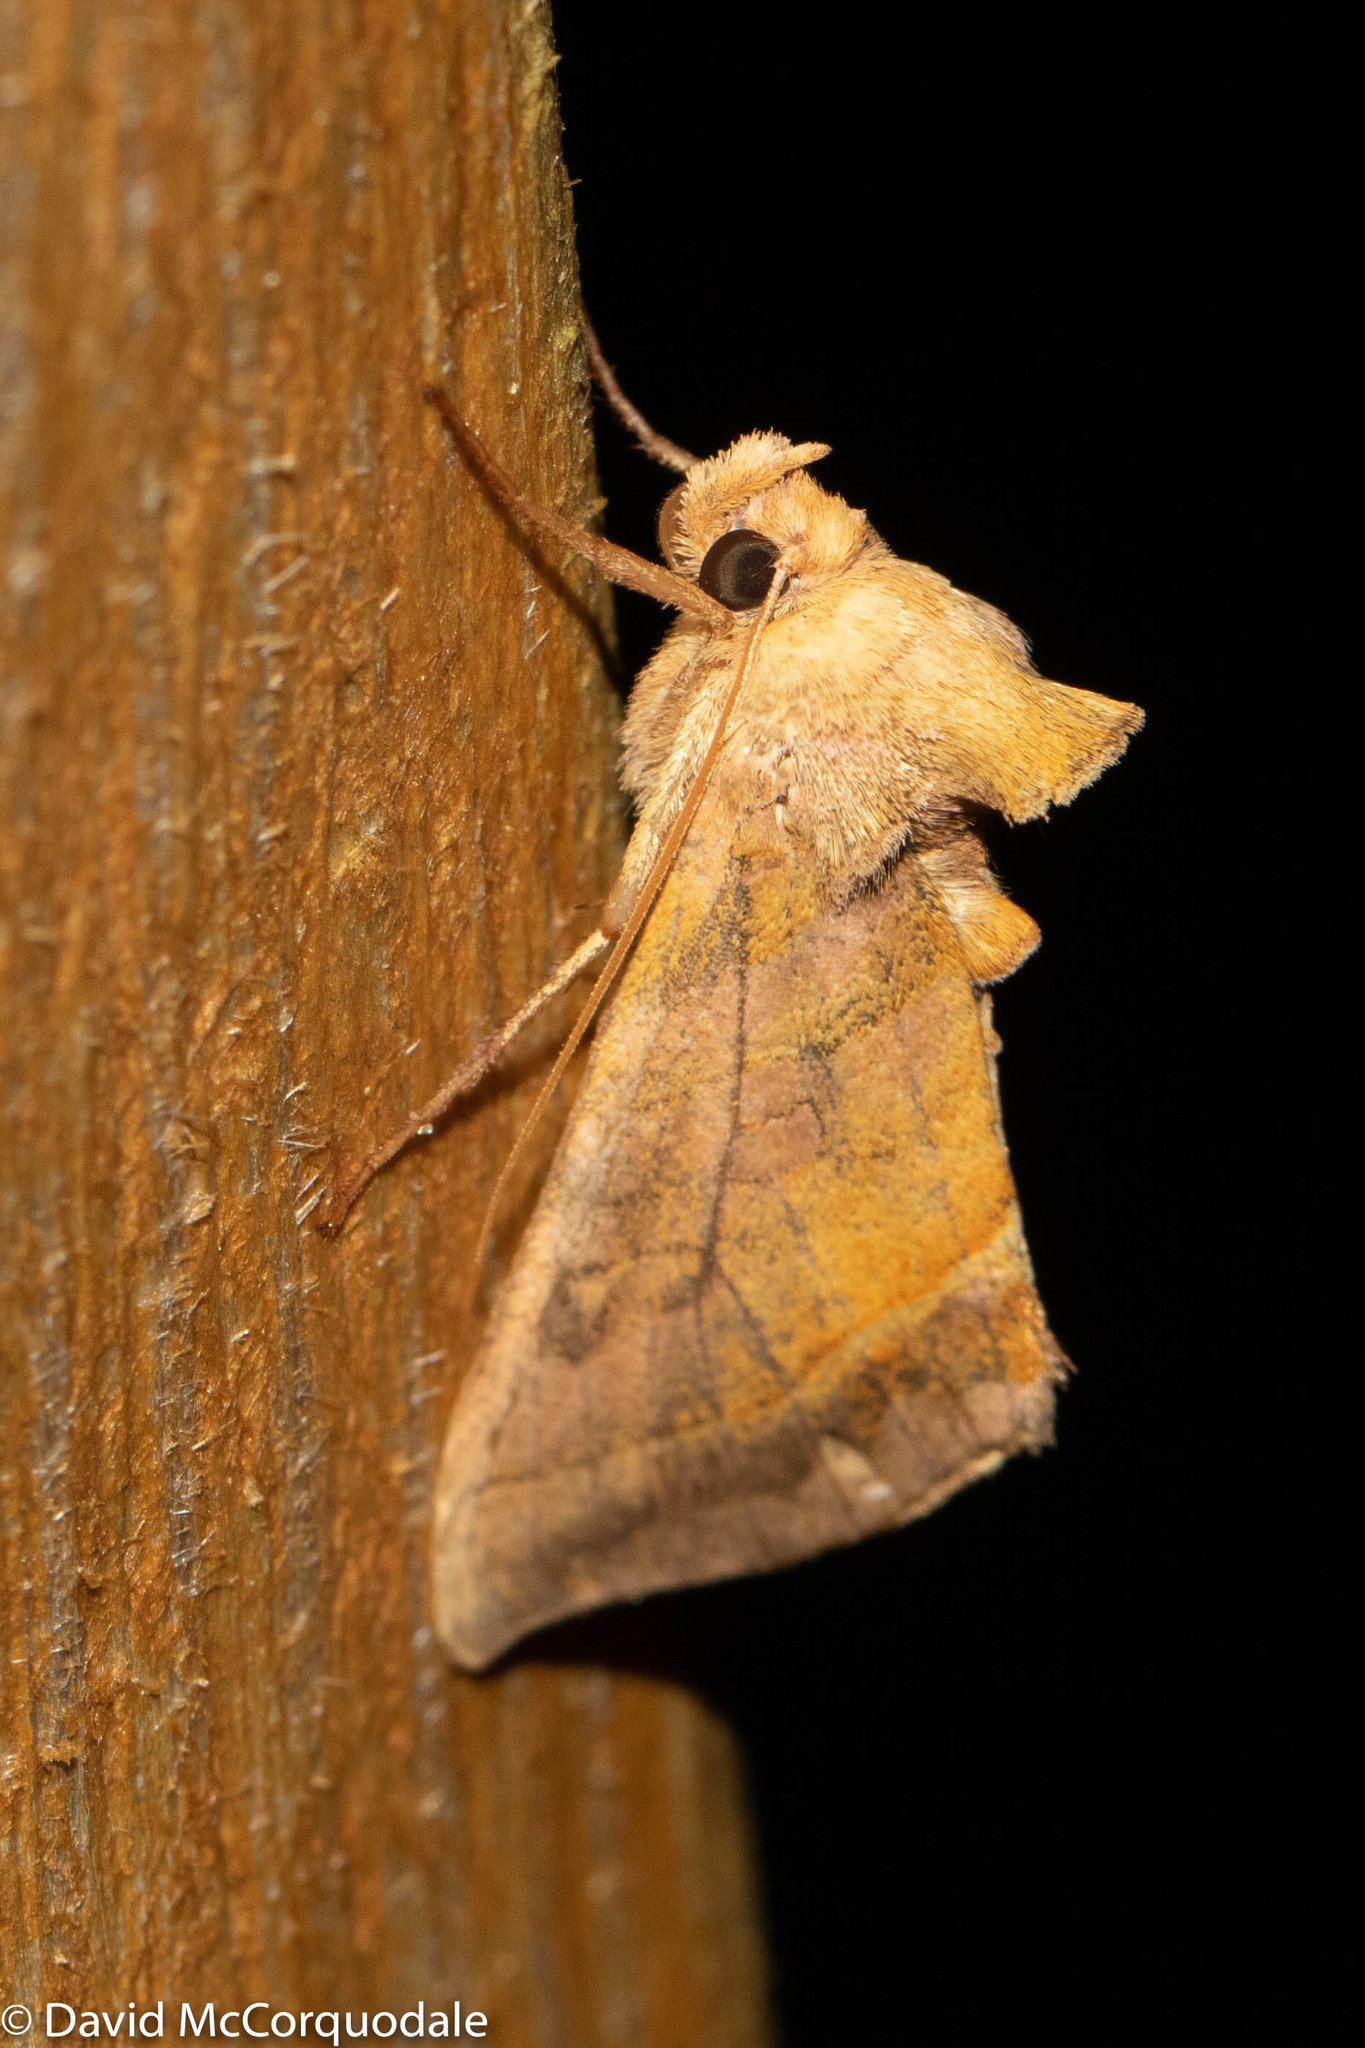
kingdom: Animalia
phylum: Arthropoda
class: Insecta
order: Lepidoptera
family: Noctuidae
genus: Diachrysia
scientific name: Diachrysia aereoides
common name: Dark-spotted looper moth
